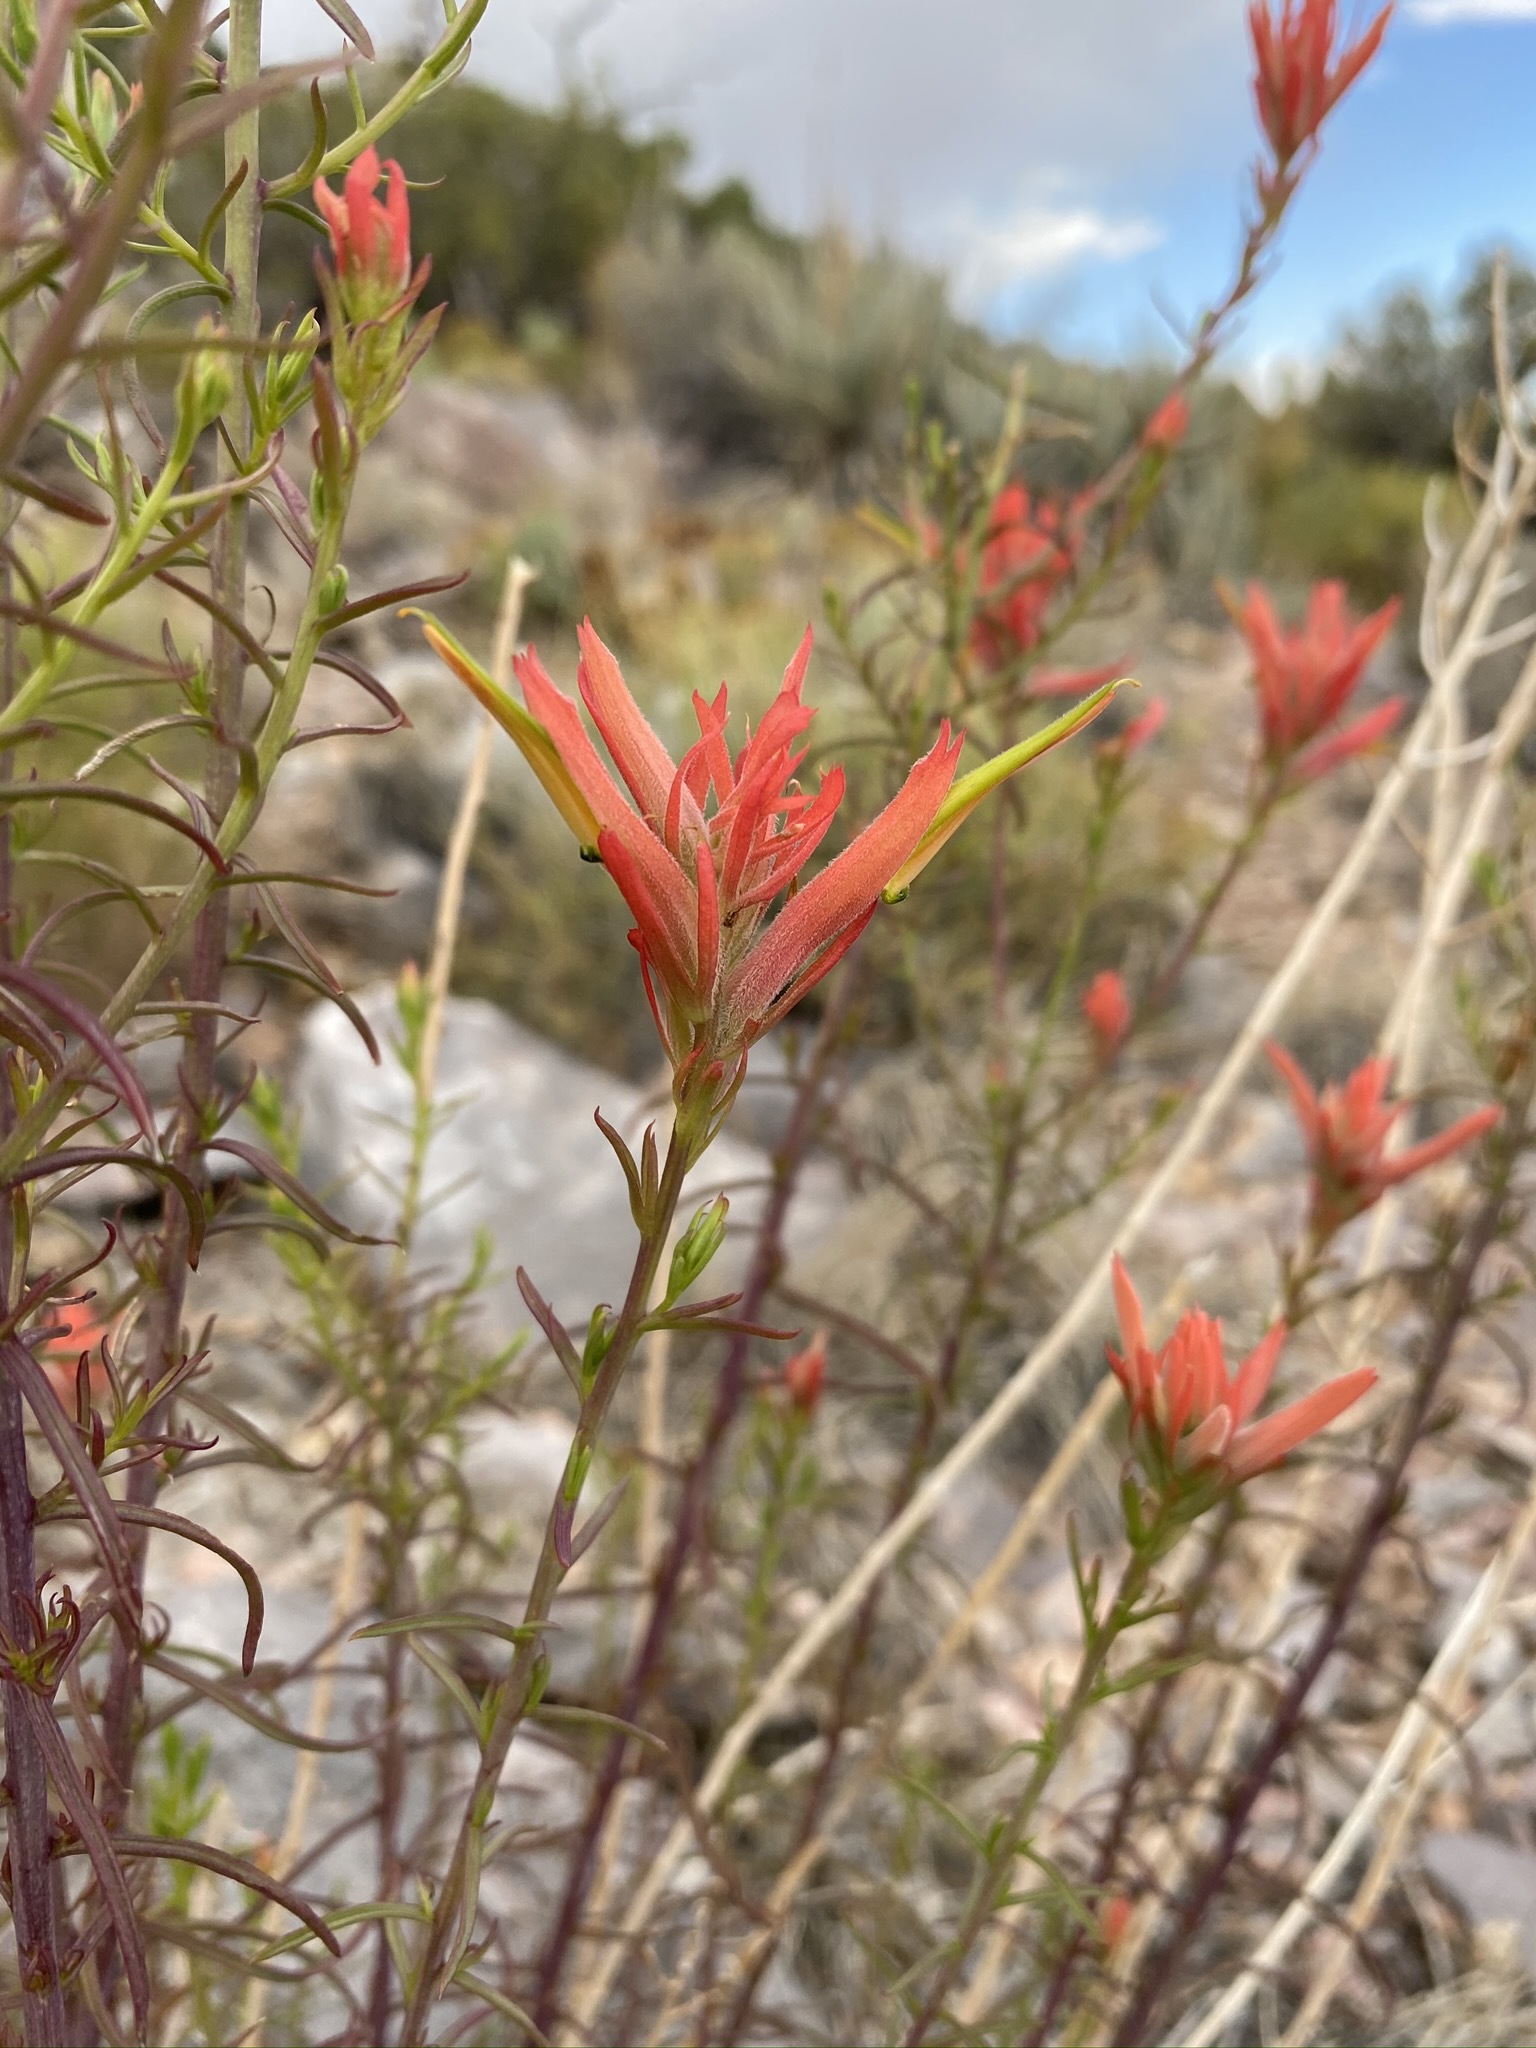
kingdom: Plantae
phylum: Tracheophyta
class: Magnoliopsida
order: Lamiales
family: Orobanchaceae
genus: Castilleja
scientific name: Castilleja linariifolia
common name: Wyoming paintbrush
